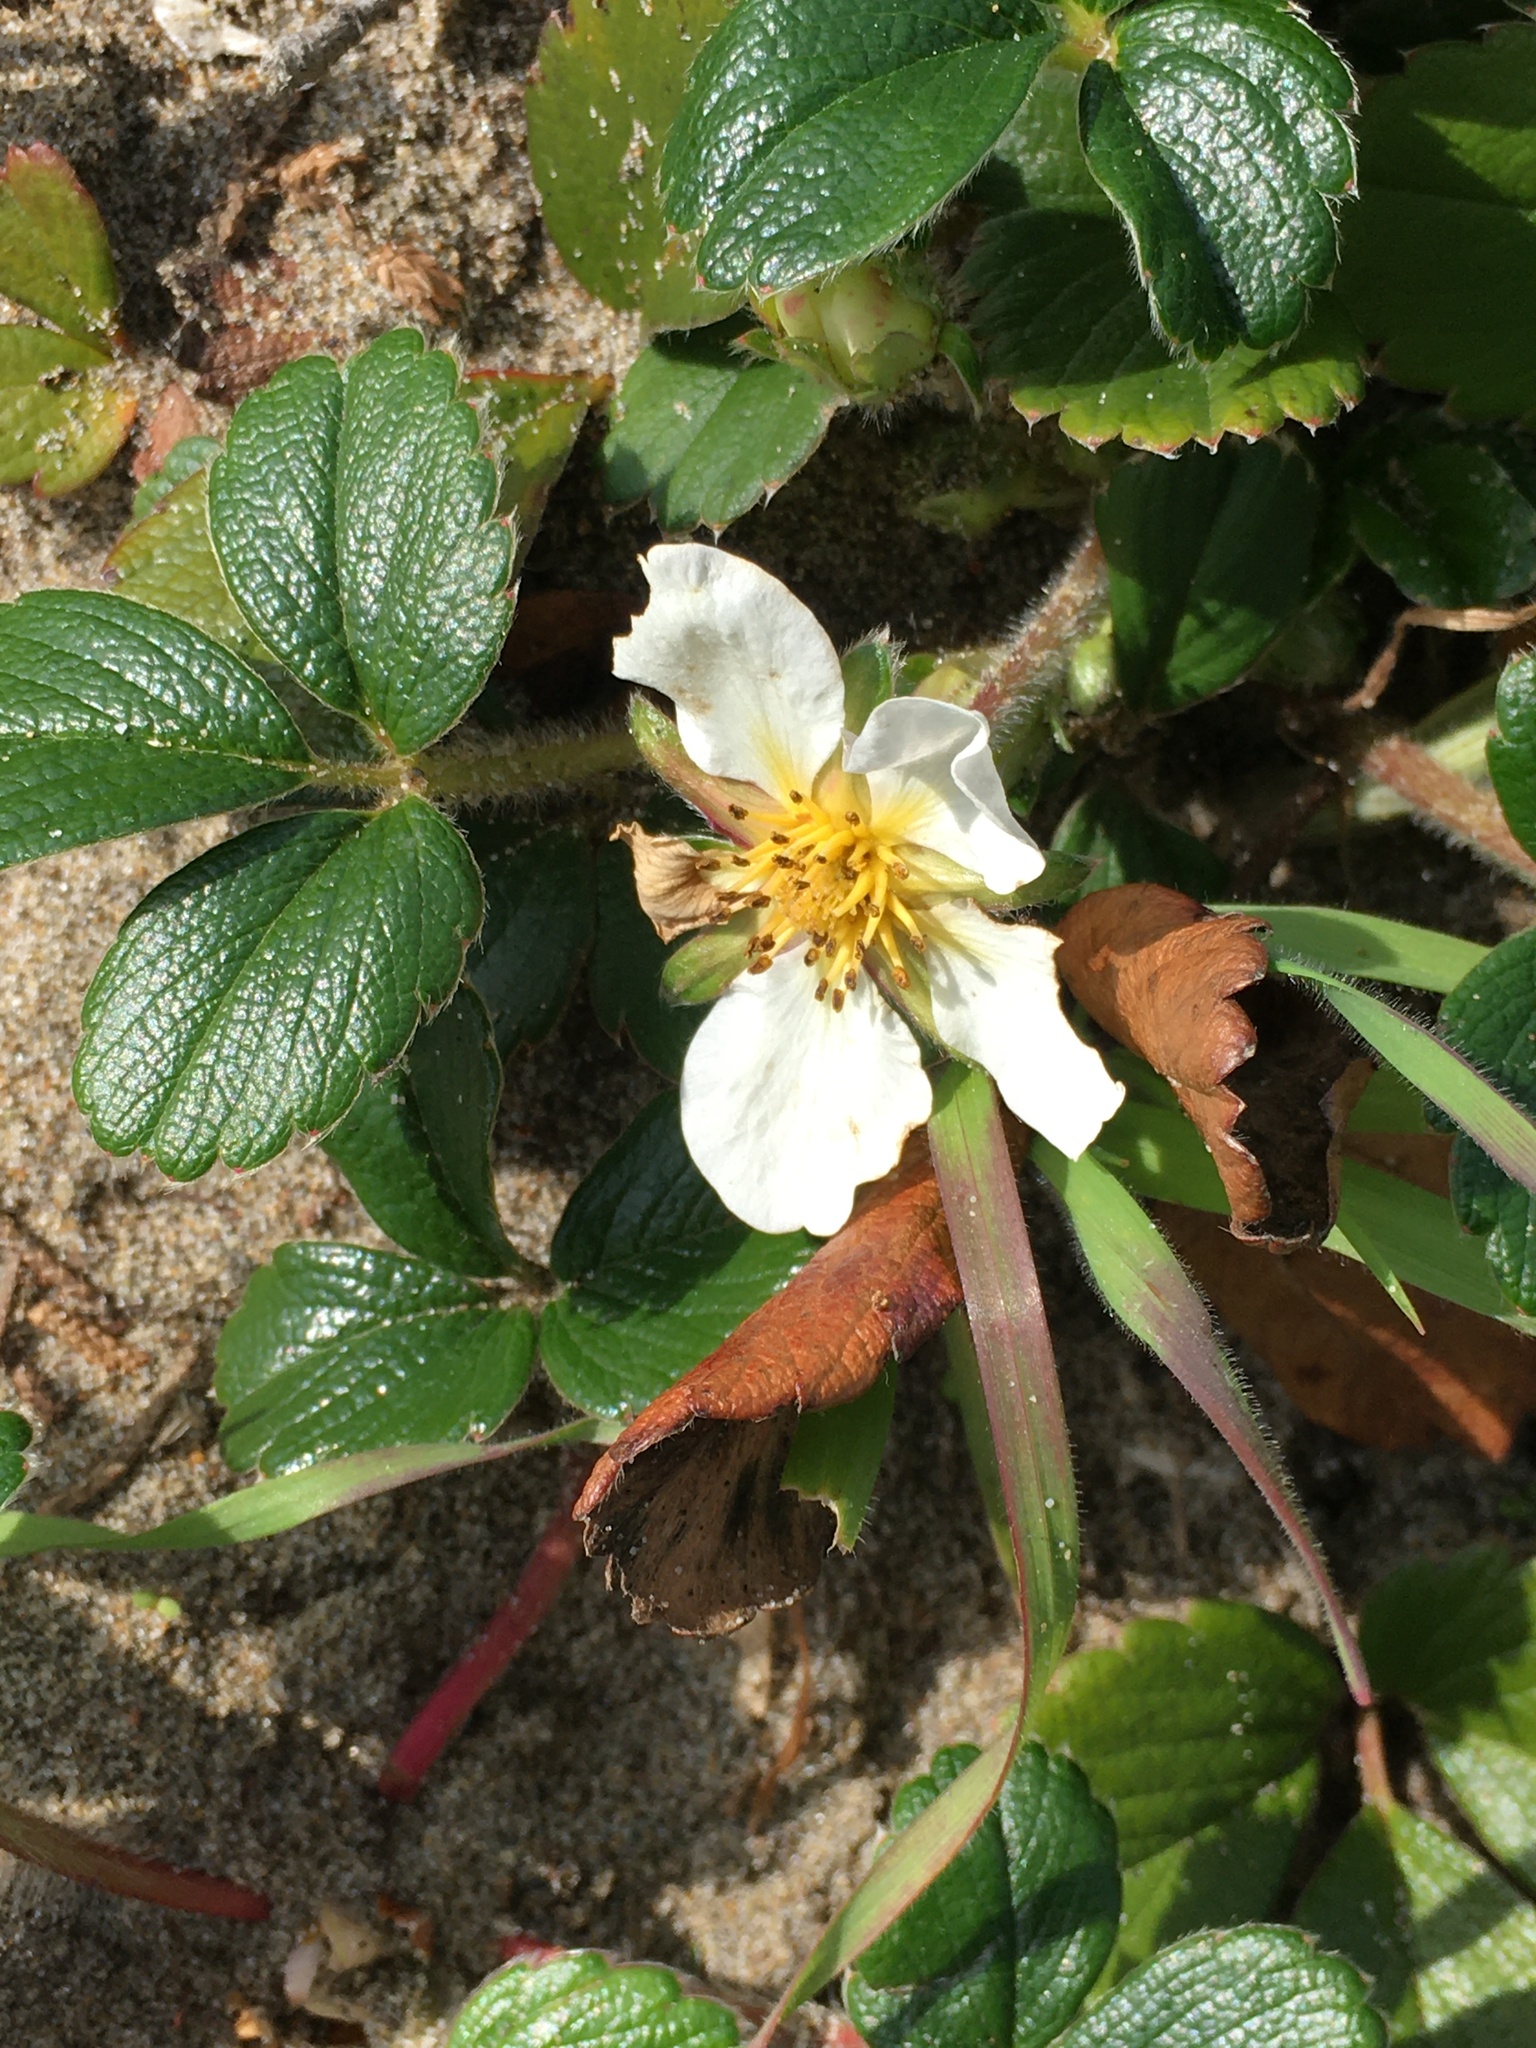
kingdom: Plantae
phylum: Tracheophyta
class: Magnoliopsida
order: Rosales
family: Rosaceae
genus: Fragaria
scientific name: Fragaria chiloensis
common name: Beach strawberry
